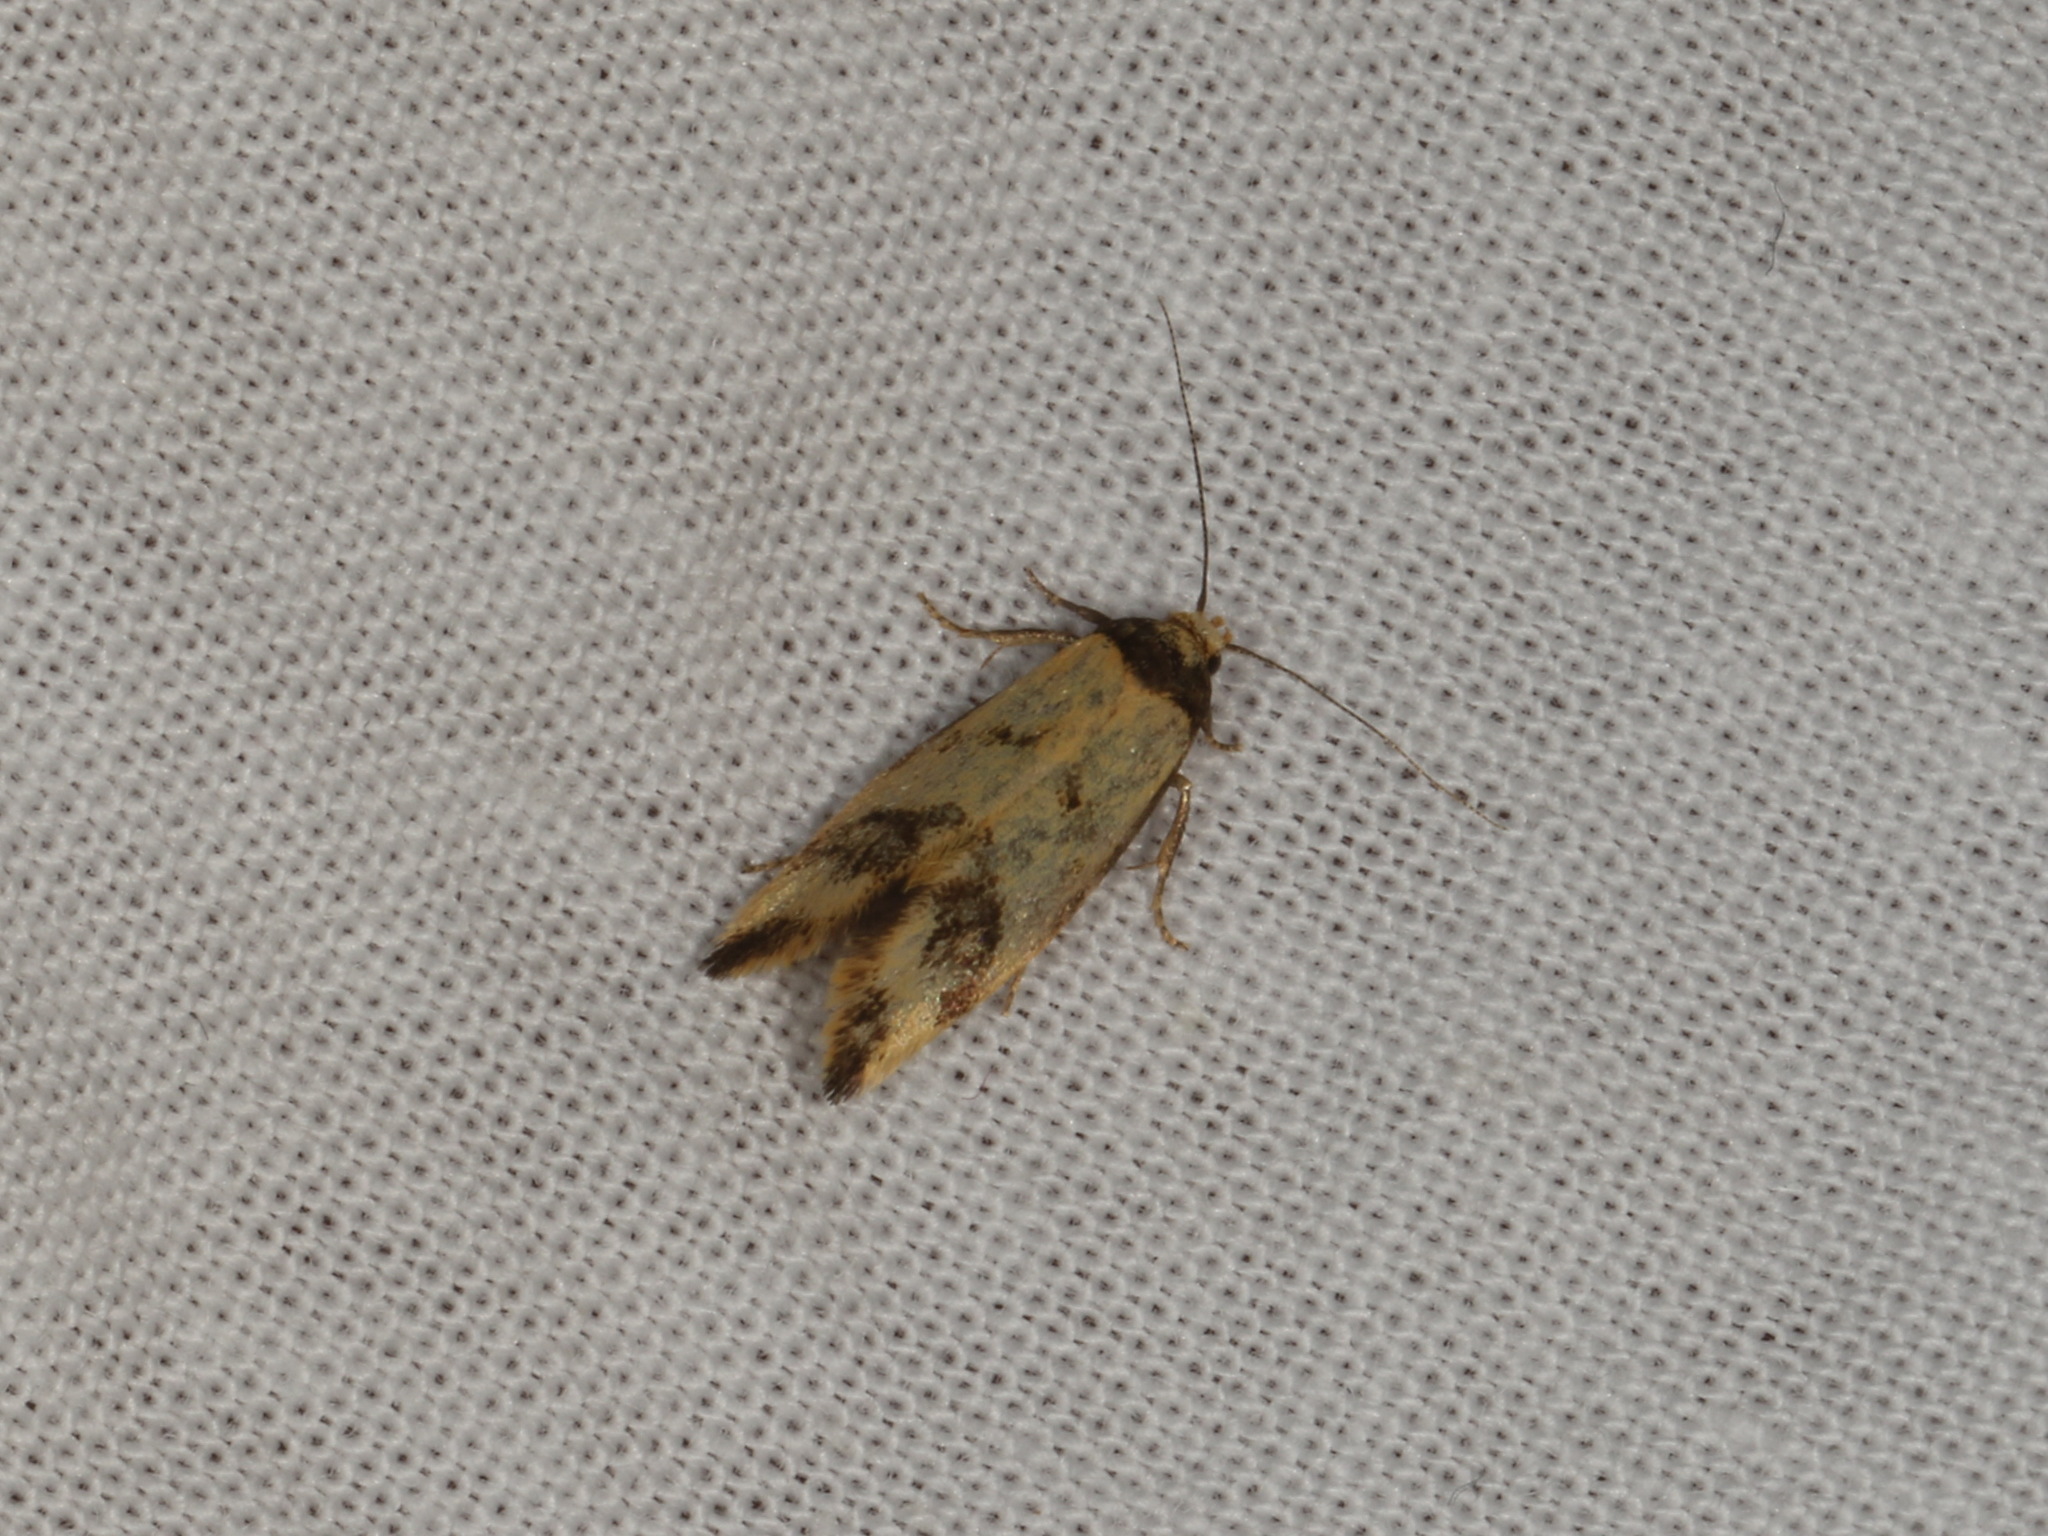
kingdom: Animalia
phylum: Arthropoda
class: Insecta
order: Lepidoptera
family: Oecophoridae
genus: Olbonoma
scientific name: Olbonoma triptycha
